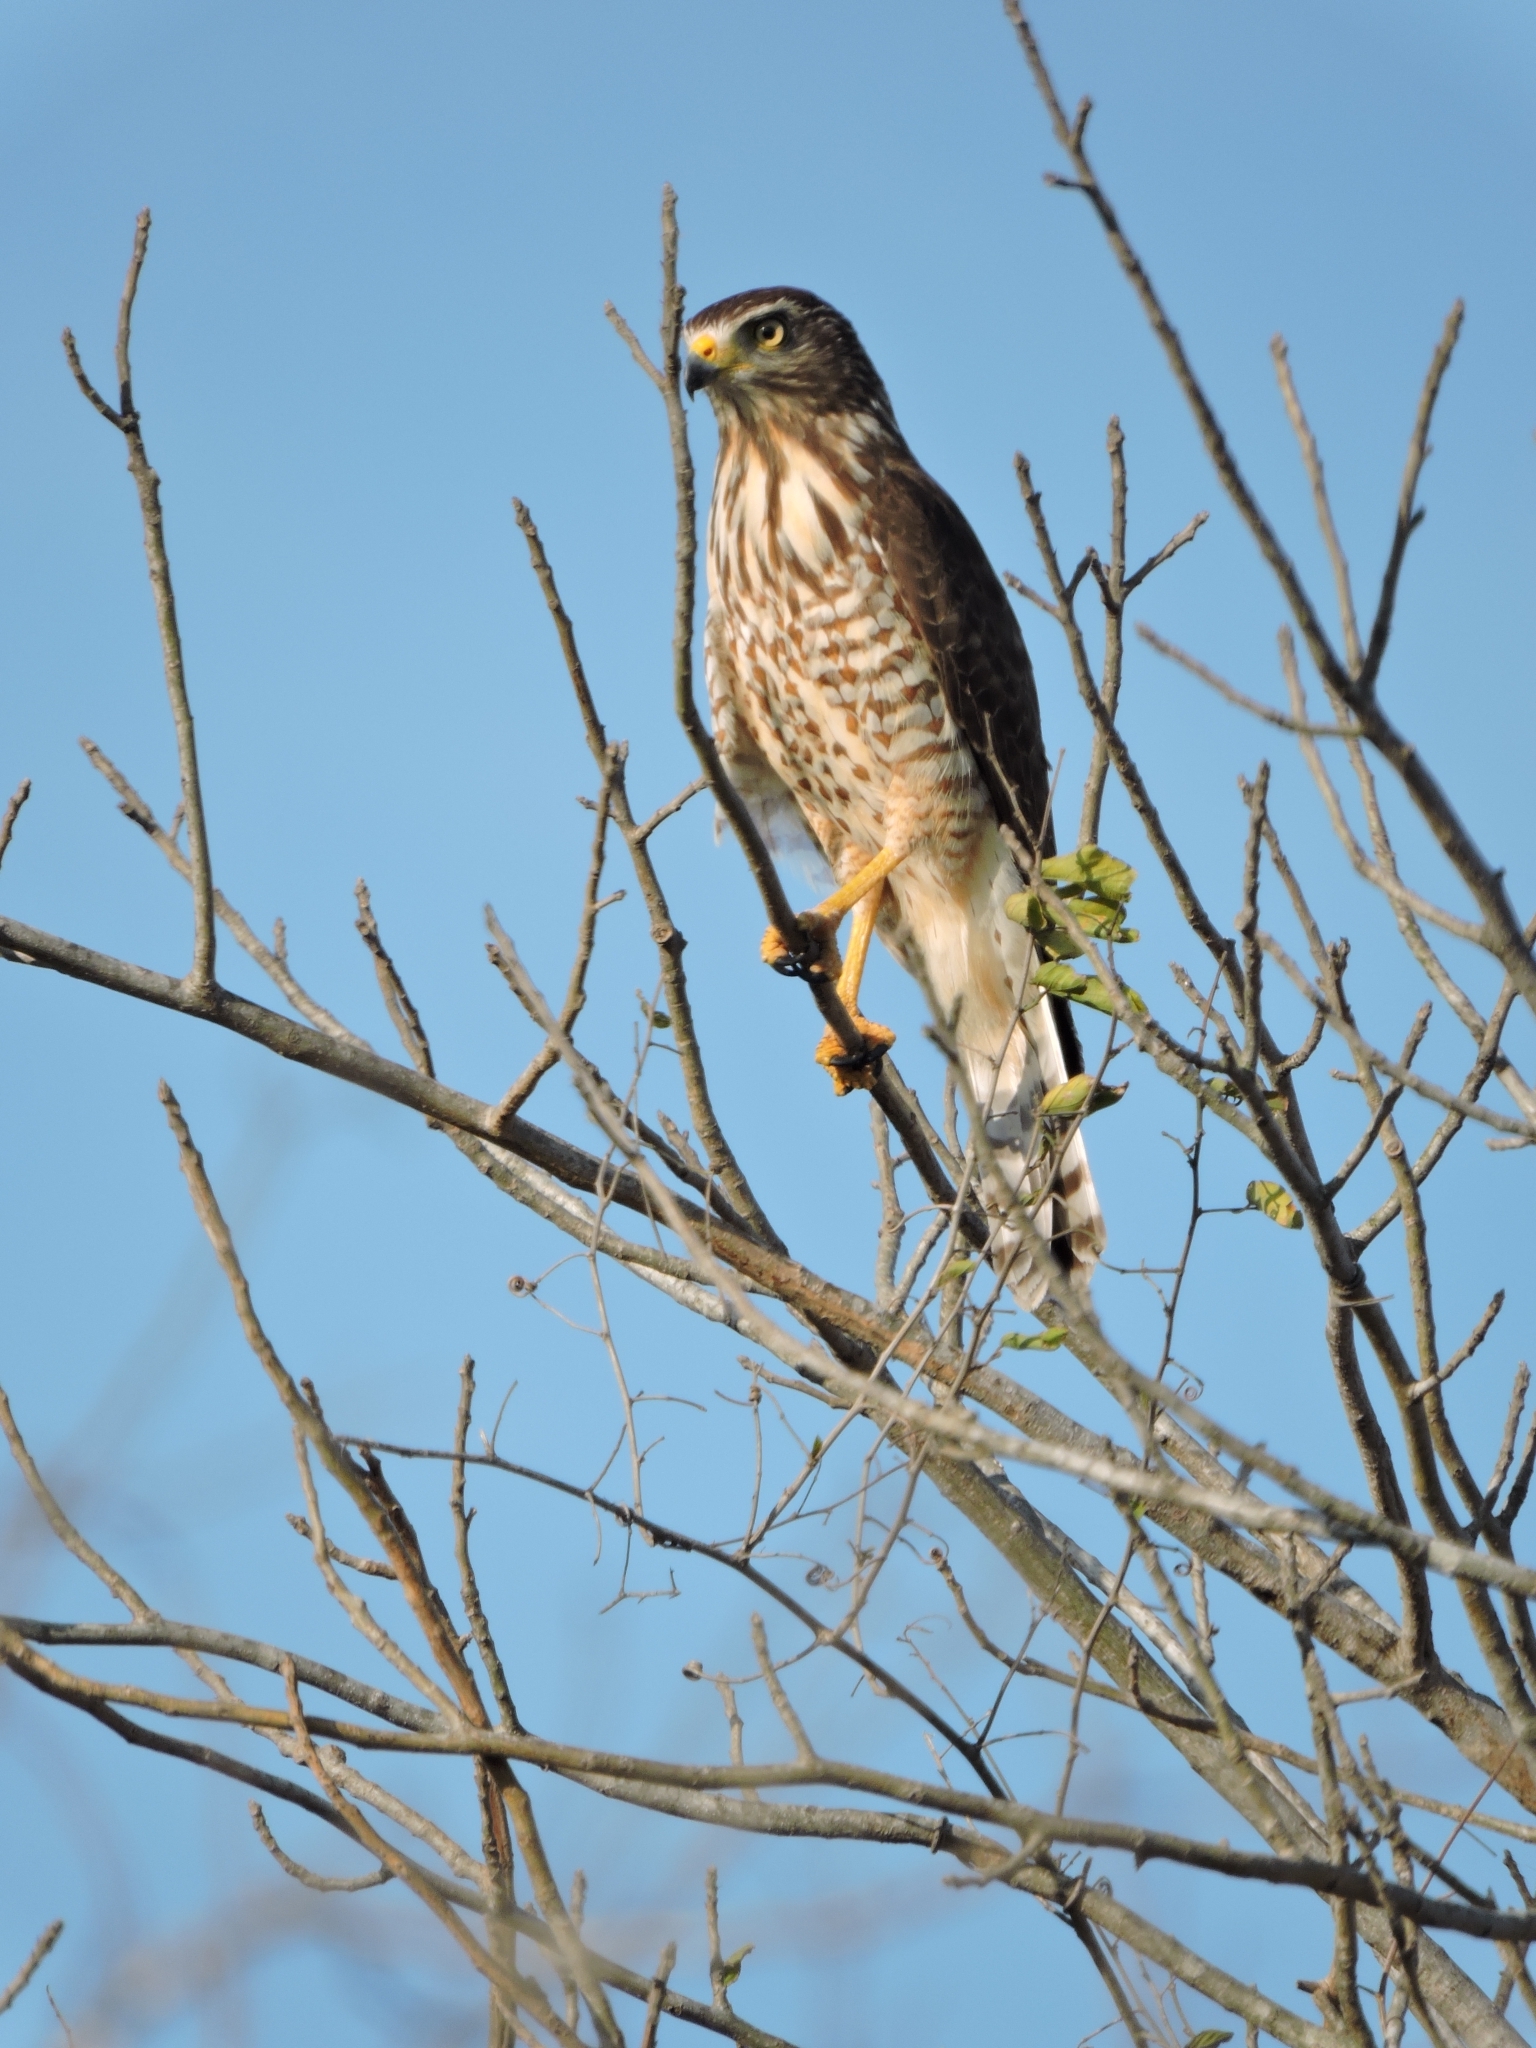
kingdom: Animalia
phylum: Chordata
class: Aves
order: Accipitriformes
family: Accipitridae
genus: Rupornis
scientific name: Rupornis magnirostris
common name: Roadside hawk
